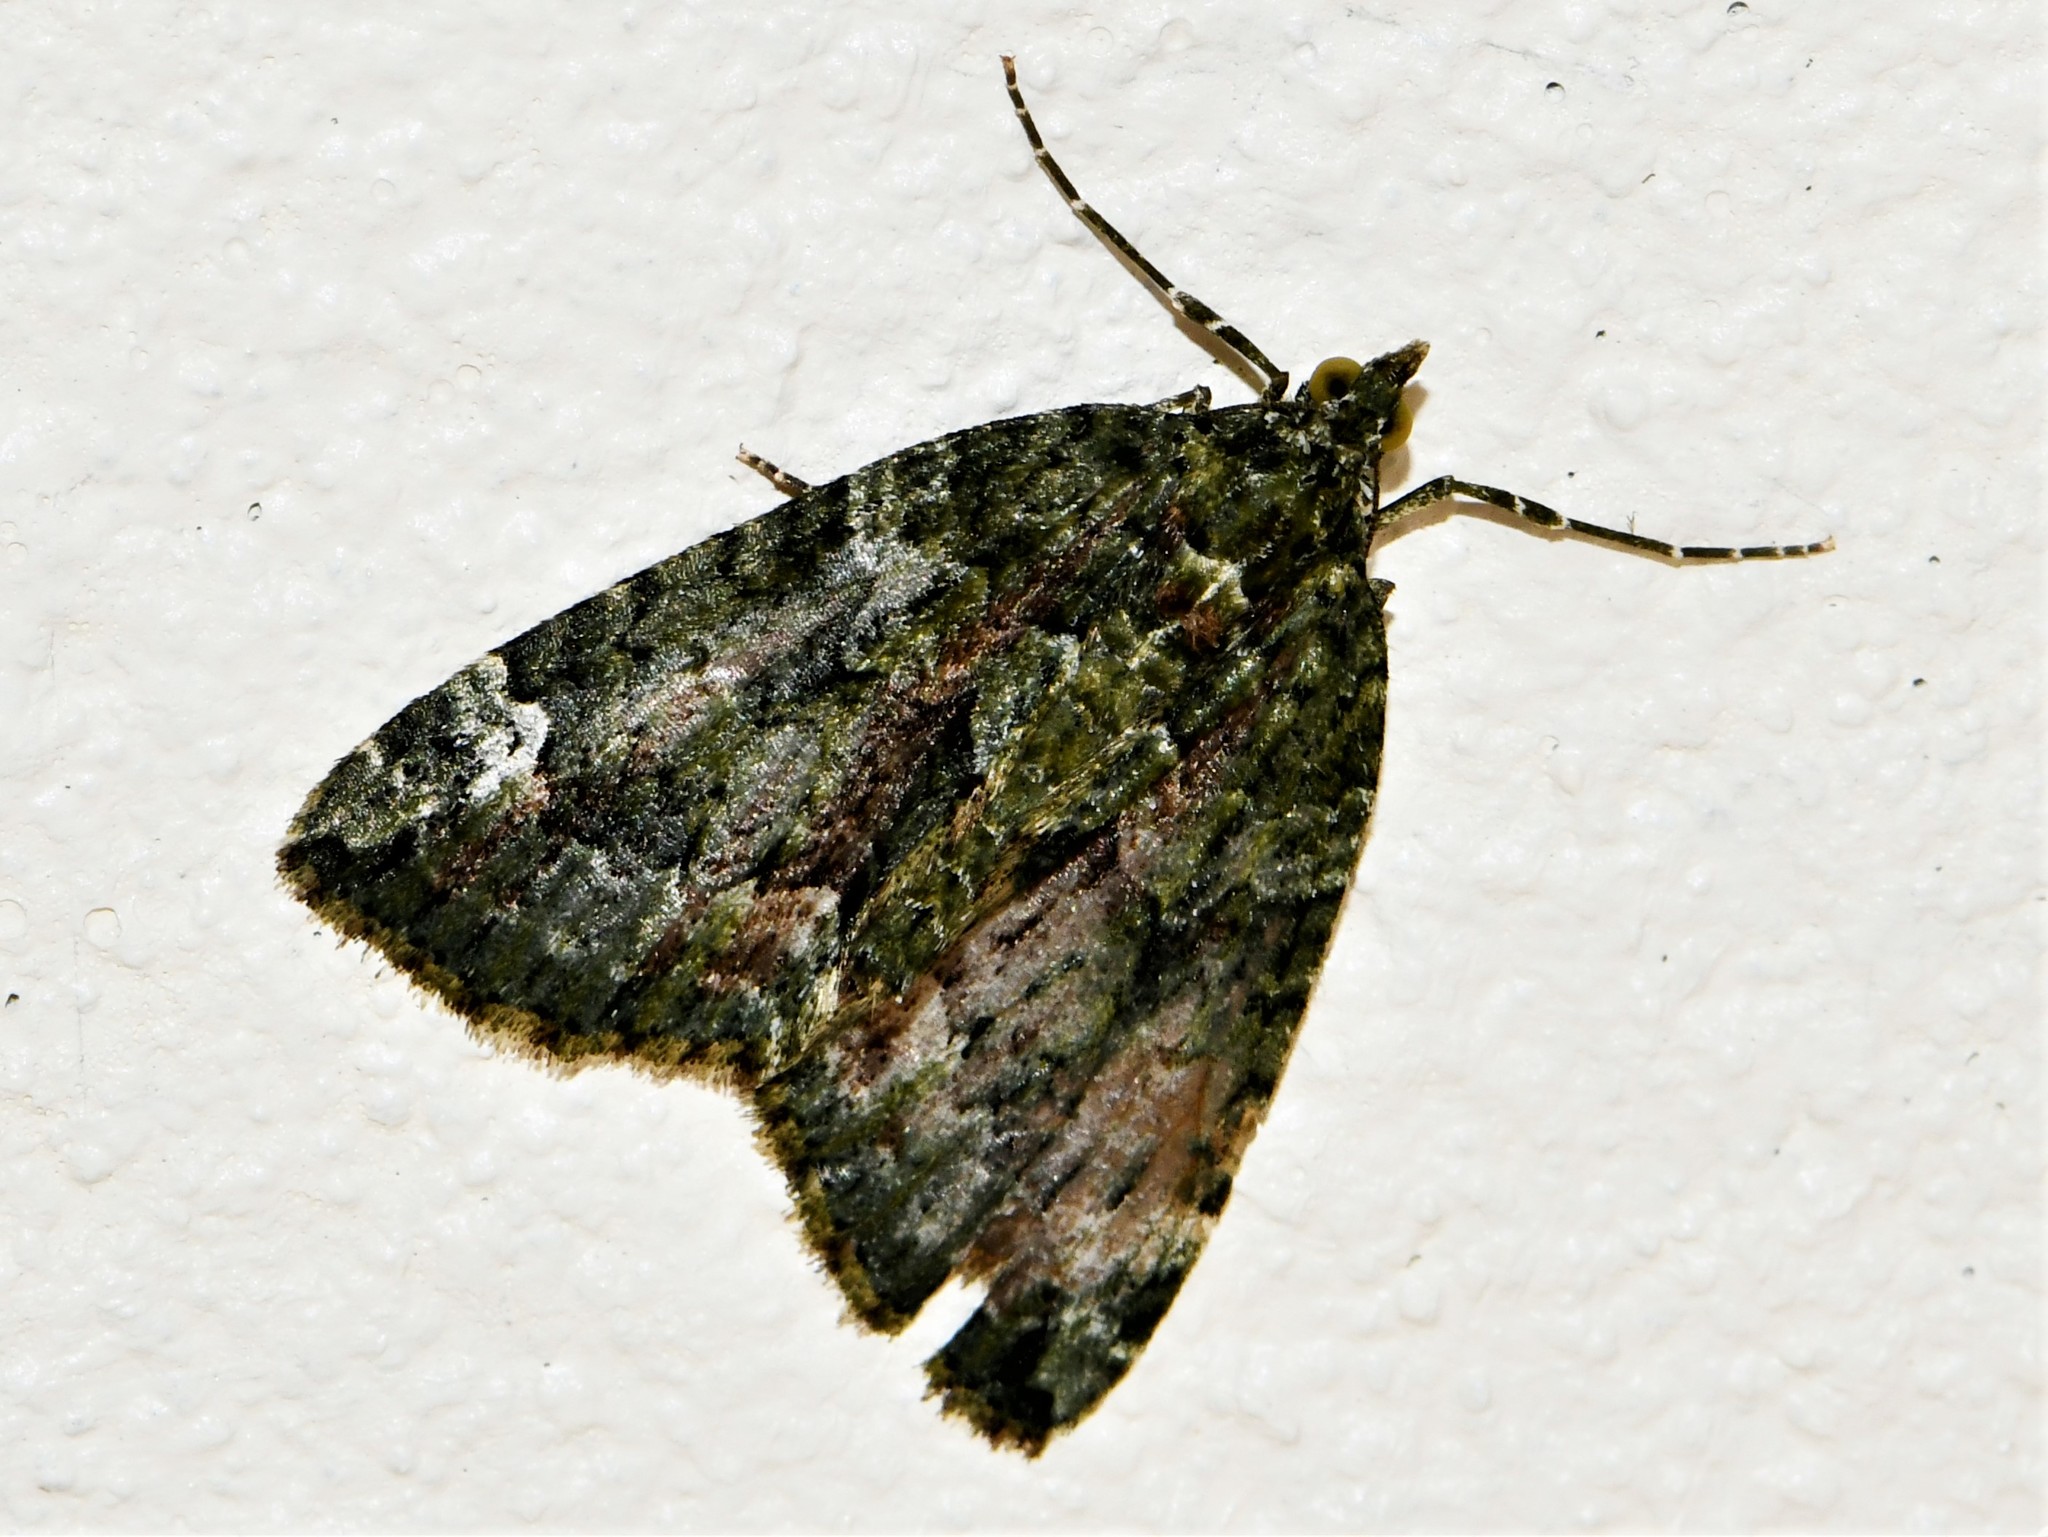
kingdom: Animalia
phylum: Arthropoda
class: Insecta
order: Lepidoptera
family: Geometridae
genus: Chloroclysta
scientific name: Chloroclysta siterata
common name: Red-green carpet
